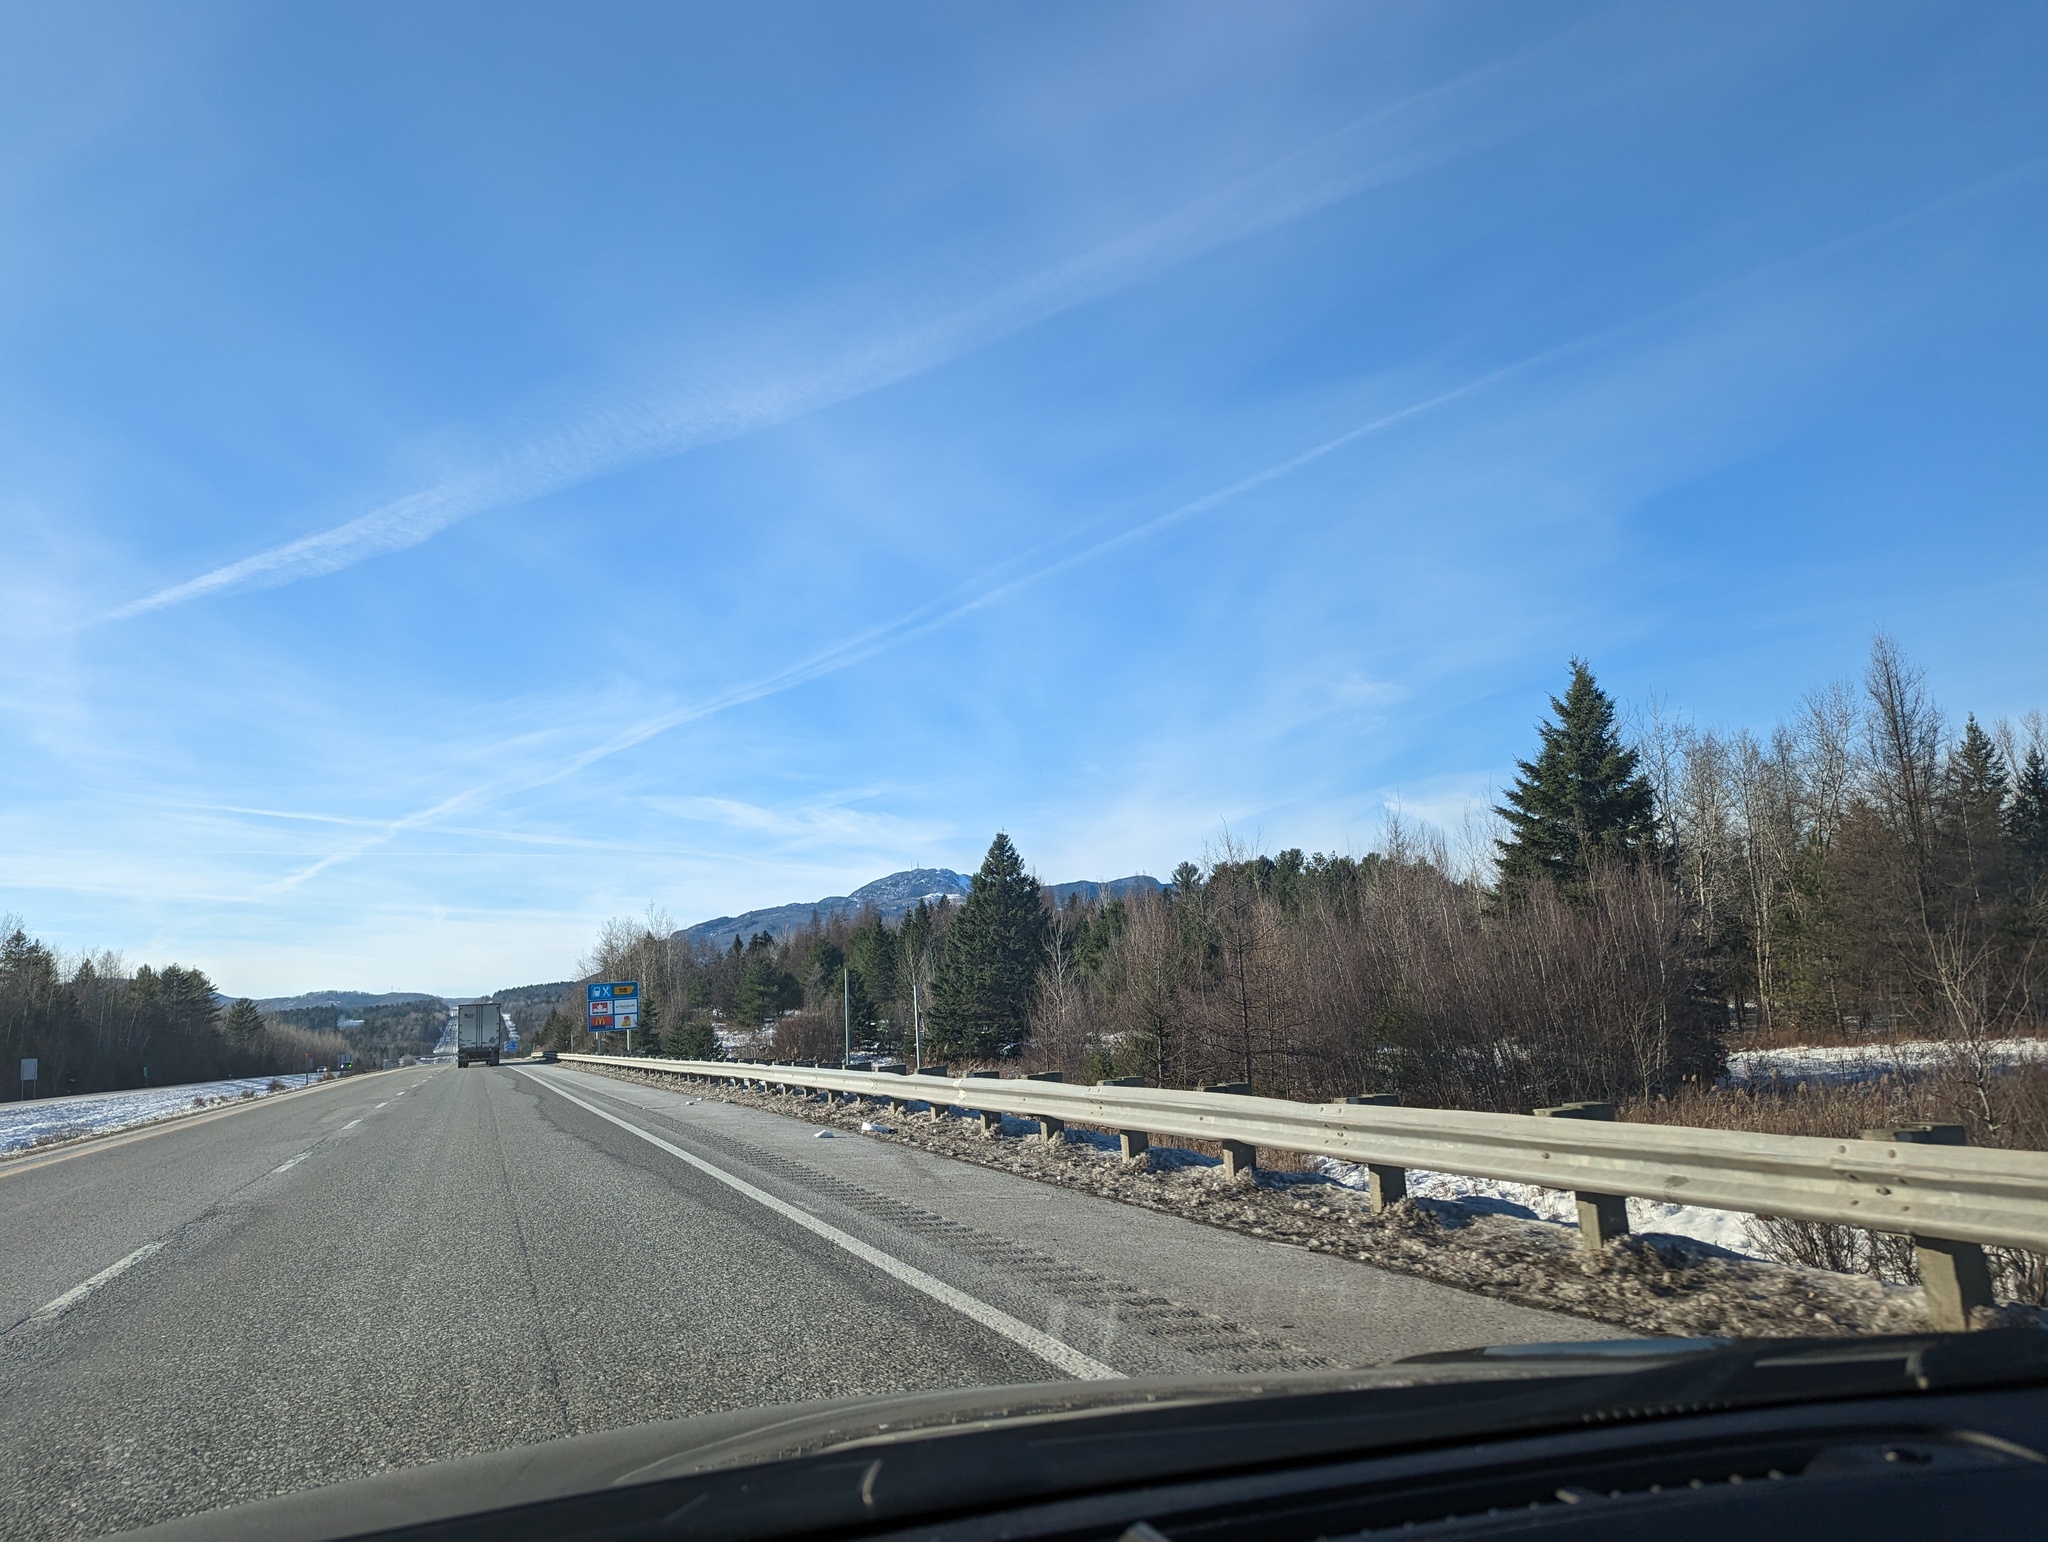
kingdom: Plantae
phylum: Tracheophyta
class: Pinopsida
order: Pinales
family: Pinaceae
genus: Pinus
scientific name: Pinus strobus
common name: Weymouth pine
